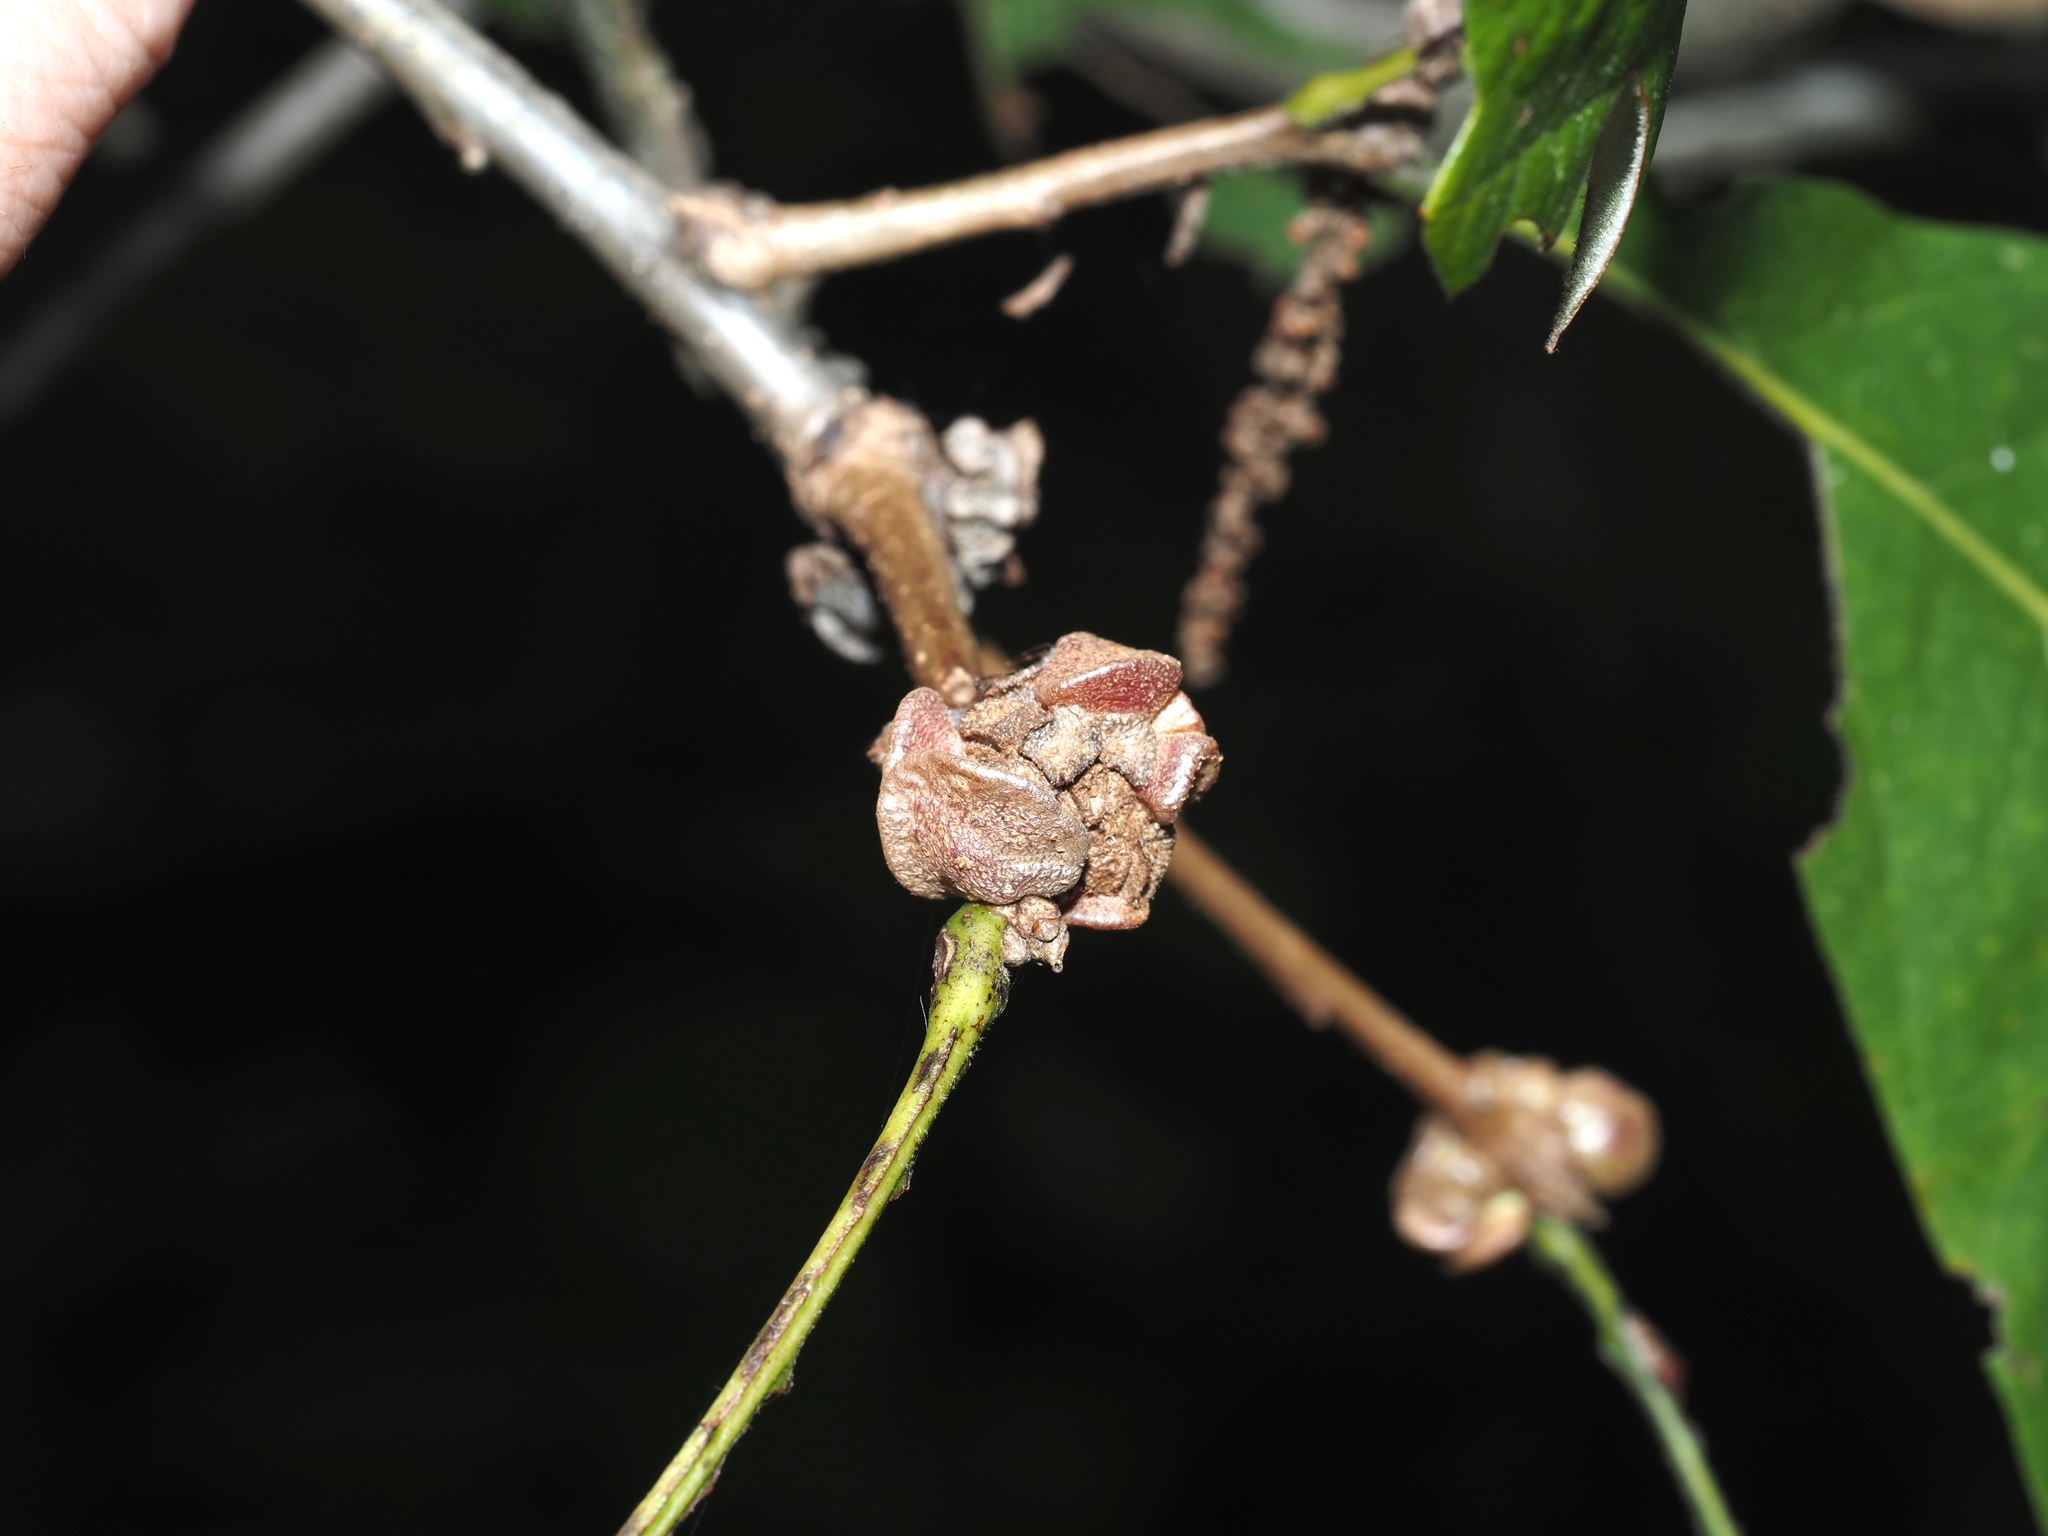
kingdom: Animalia
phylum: Arthropoda
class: Insecta
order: Hymenoptera
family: Cynipidae
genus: Andricus
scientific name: Andricus
